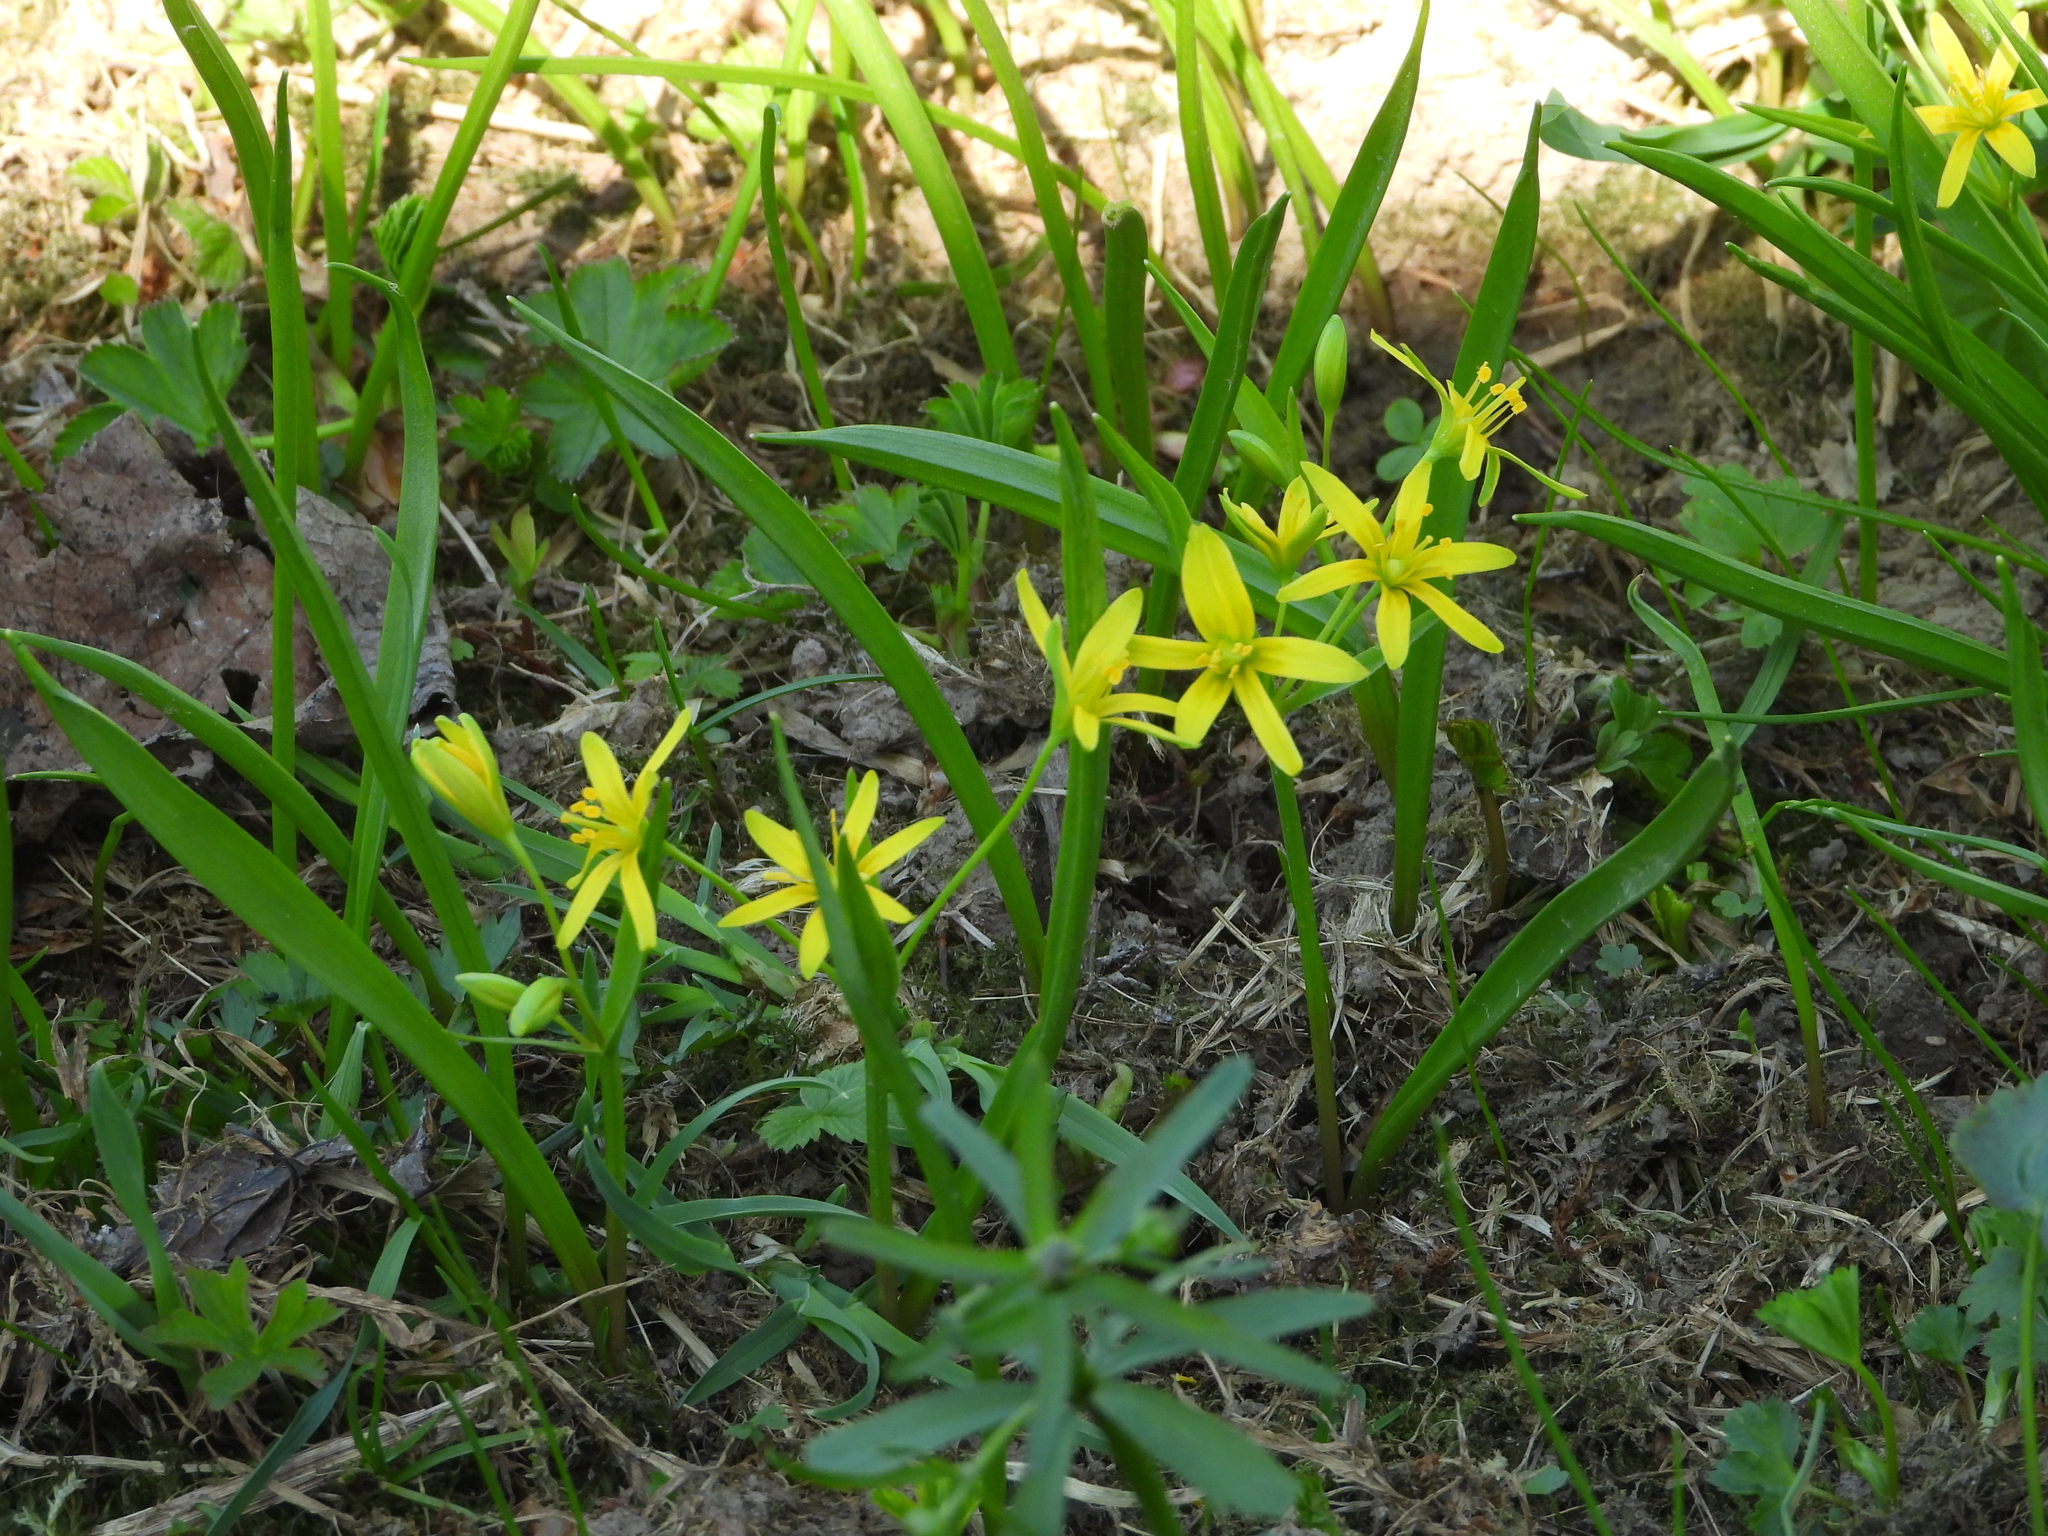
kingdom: Plantae
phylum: Tracheophyta
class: Liliopsida
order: Liliales
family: Liliaceae
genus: Gagea
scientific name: Gagea lutea
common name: Yellow star-of-bethlehem
